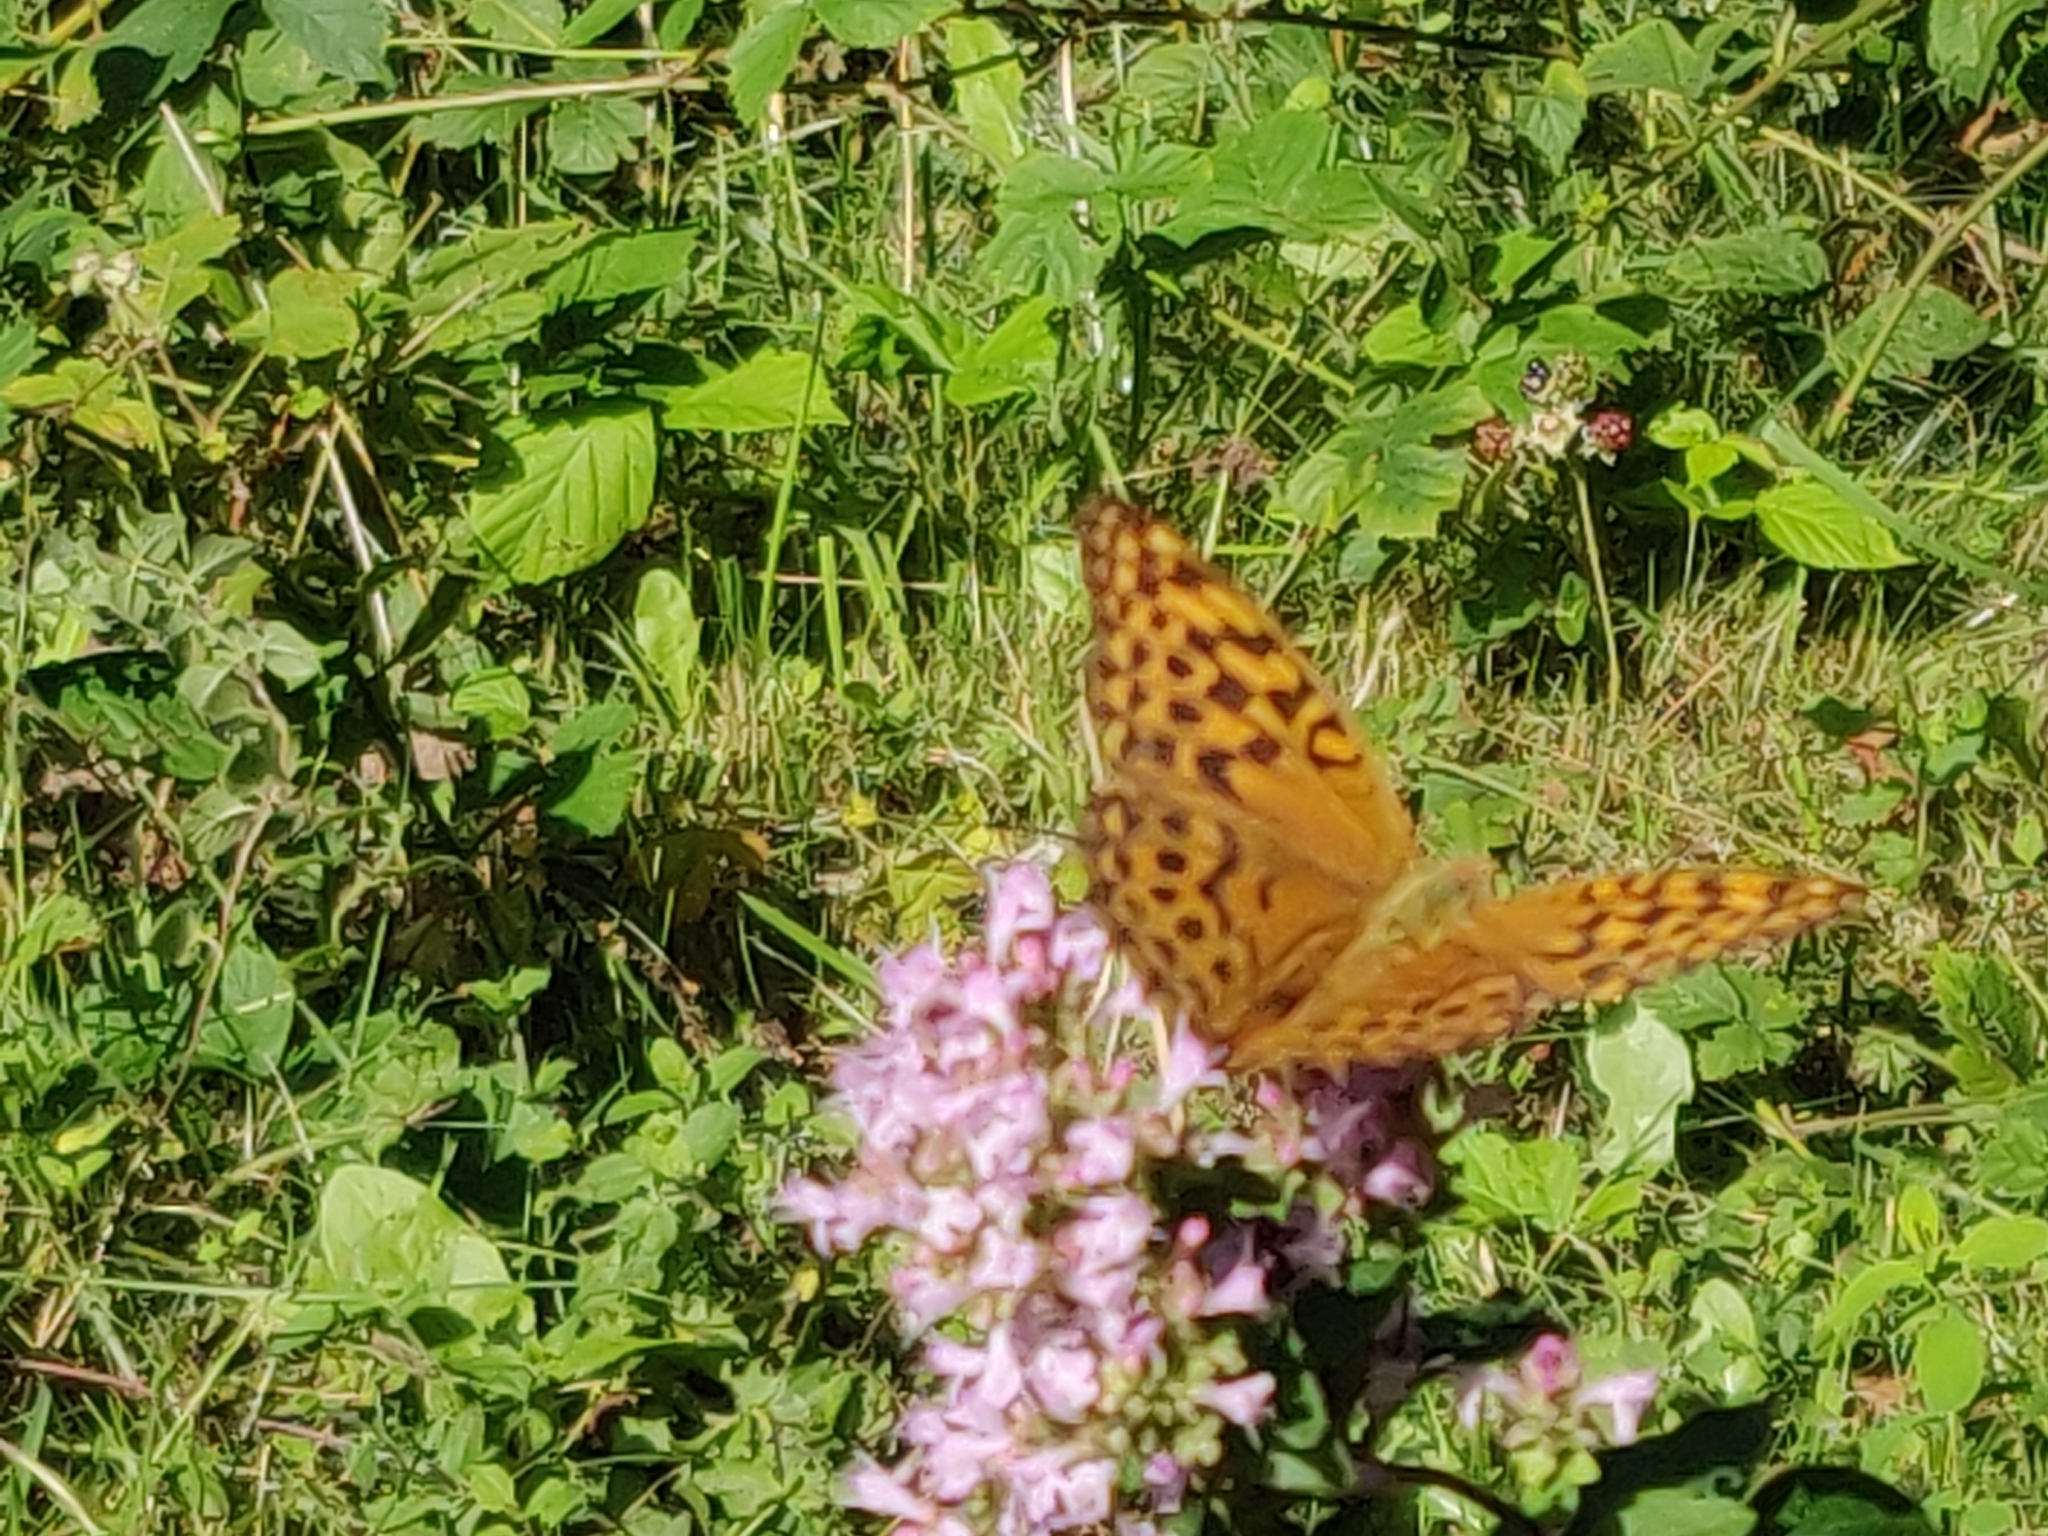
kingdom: Animalia
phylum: Arthropoda
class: Insecta
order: Lepidoptera
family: Nymphalidae
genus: Argynnis
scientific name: Argynnis paphia
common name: Silver-washed fritillary
